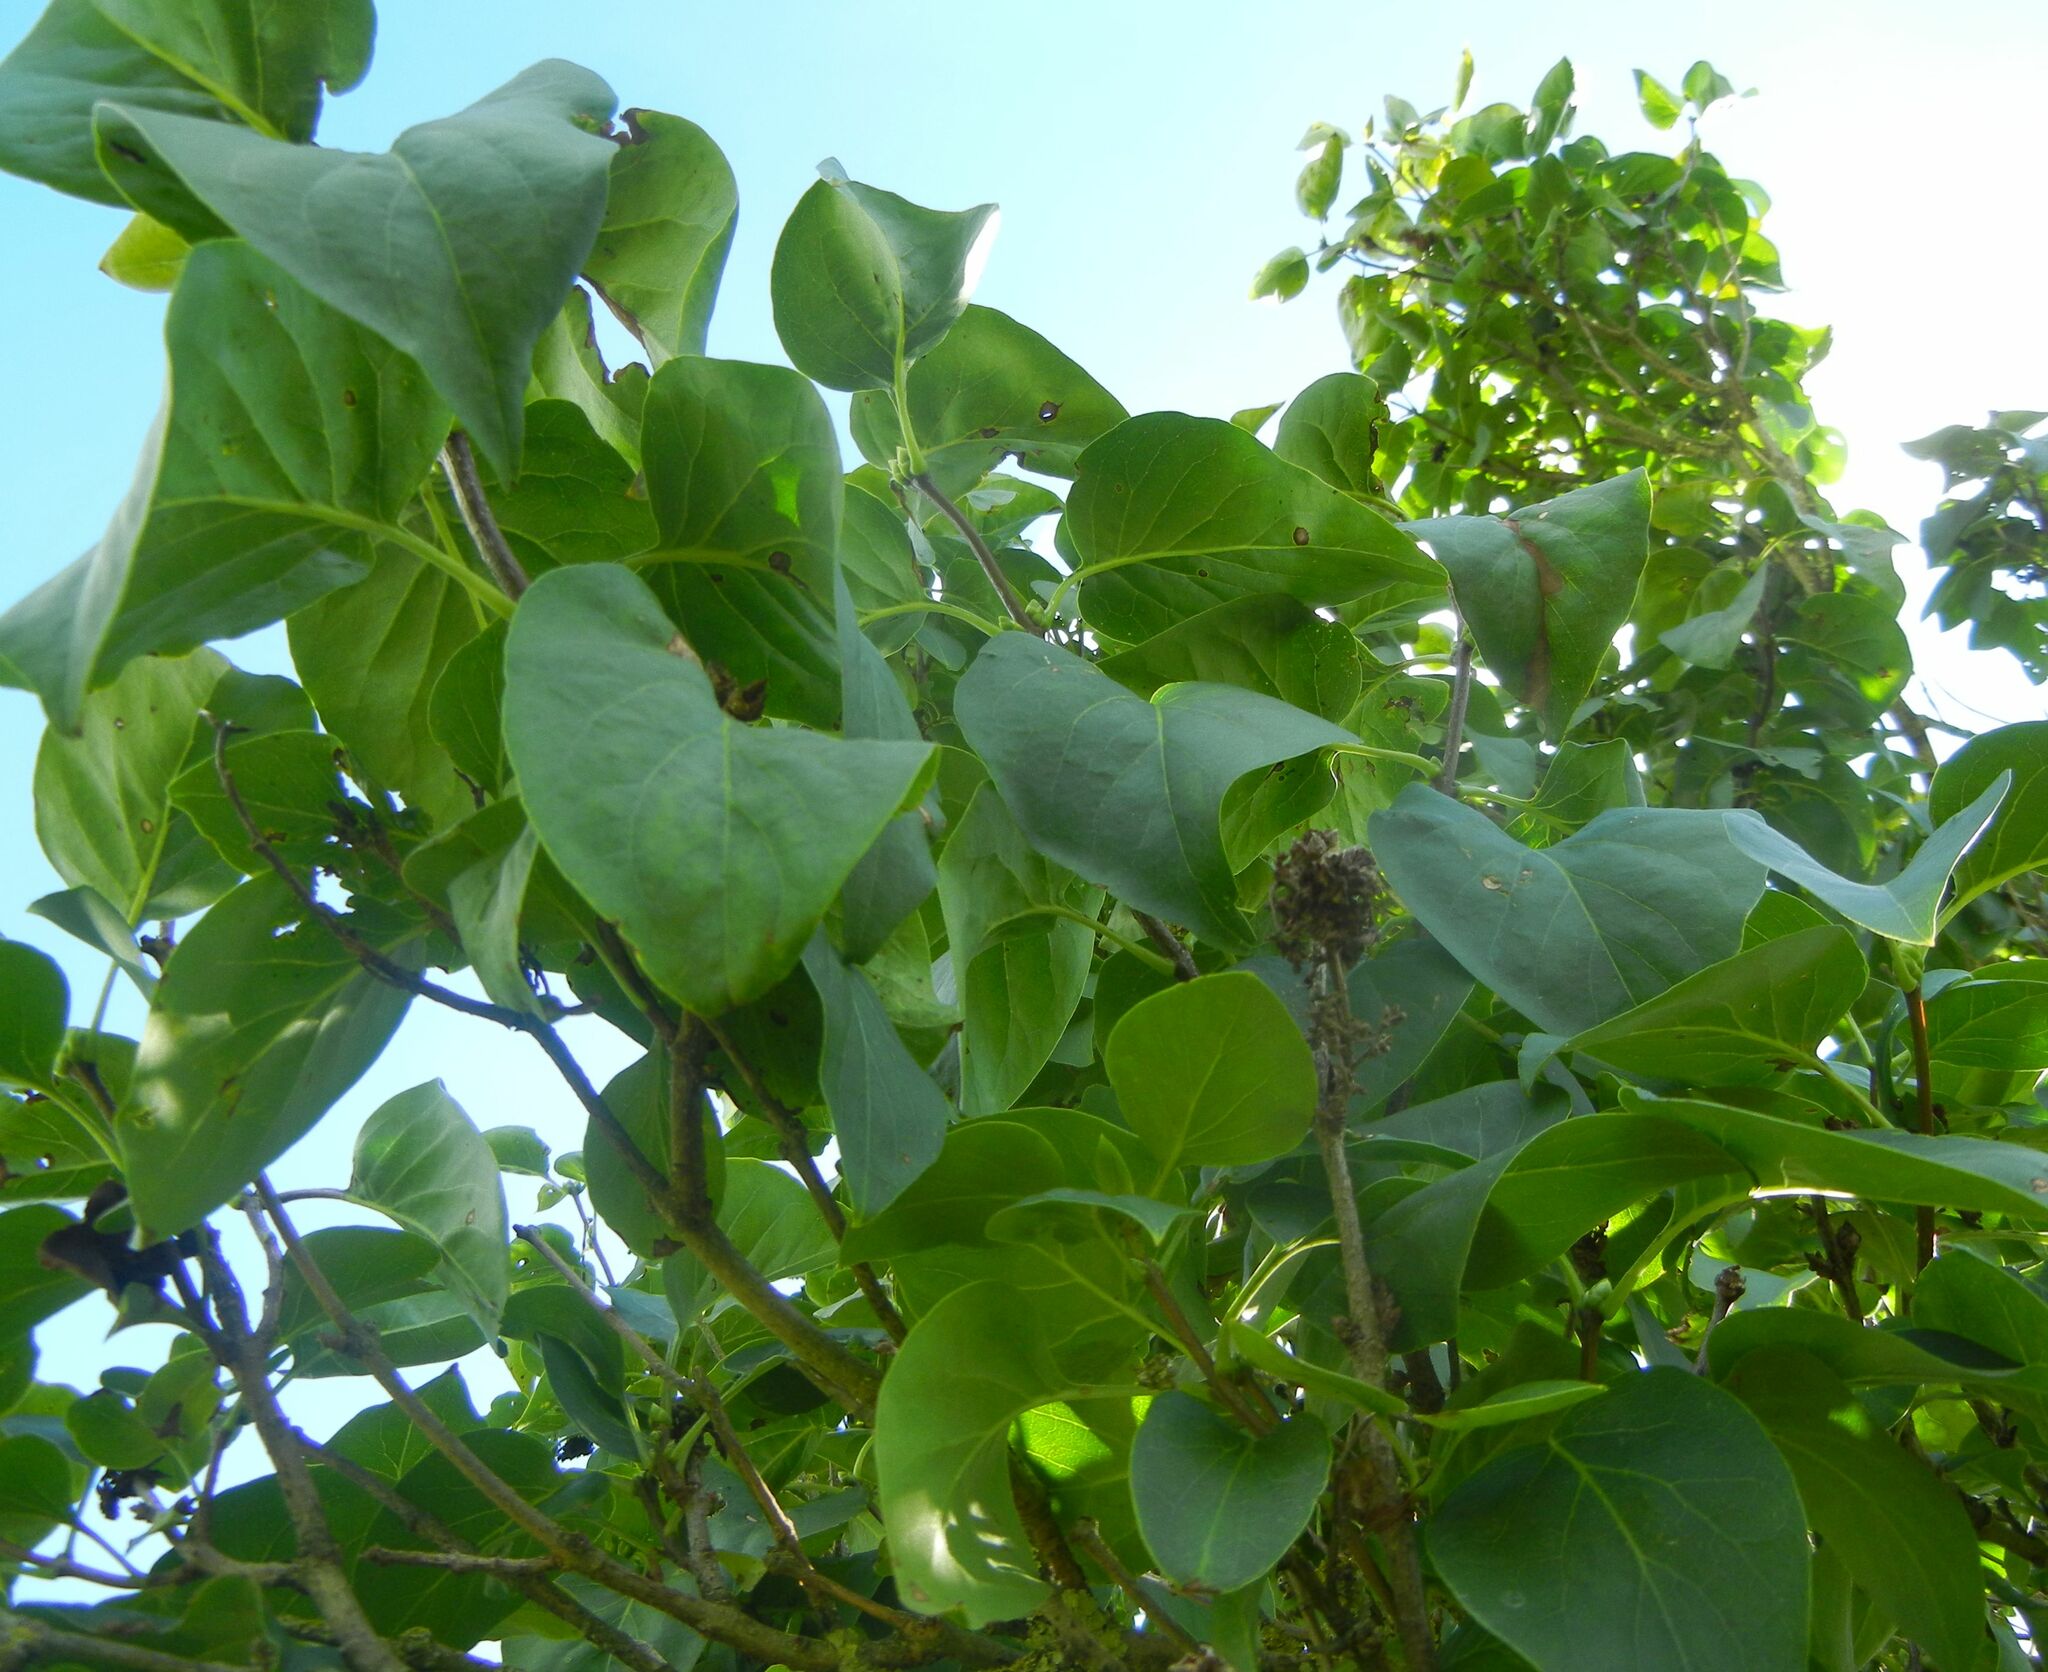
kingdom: Plantae
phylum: Tracheophyta
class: Magnoliopsida
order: Lamiales
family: Oleaceae
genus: Syringa
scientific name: Syringa vulgaris
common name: Common lilac
